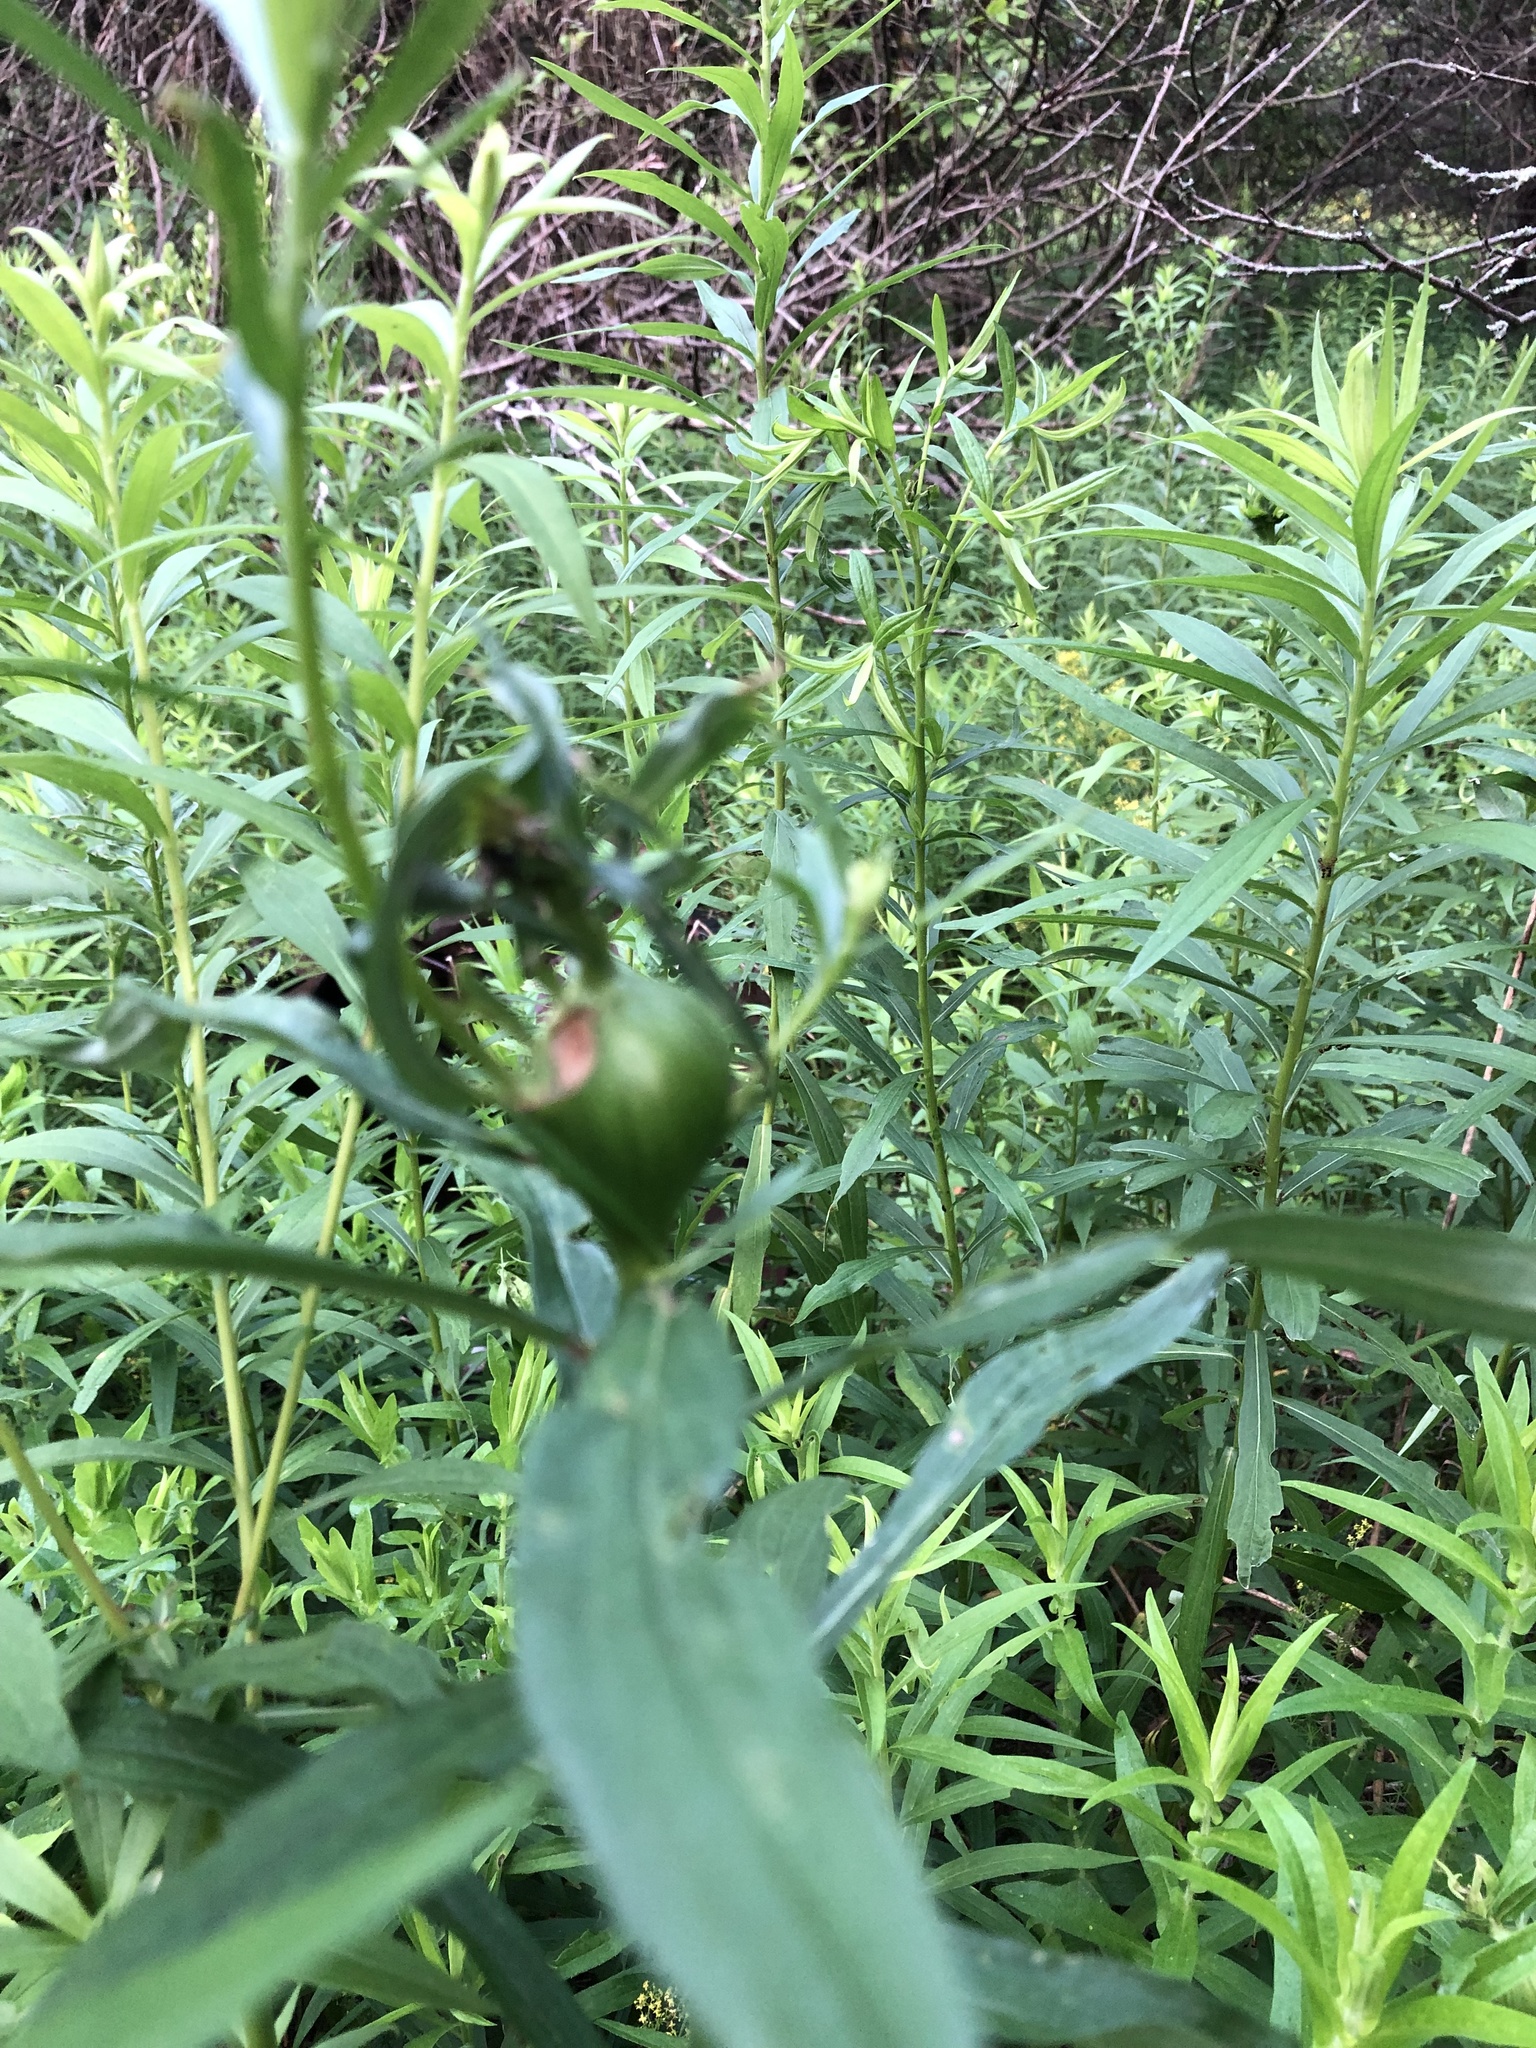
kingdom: Animalia
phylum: Arthropoda
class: Insecta
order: Diptera
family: Tephritidae
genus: Eurosta
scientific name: Eurosta solidaginis
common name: Goldenrod gall fly
